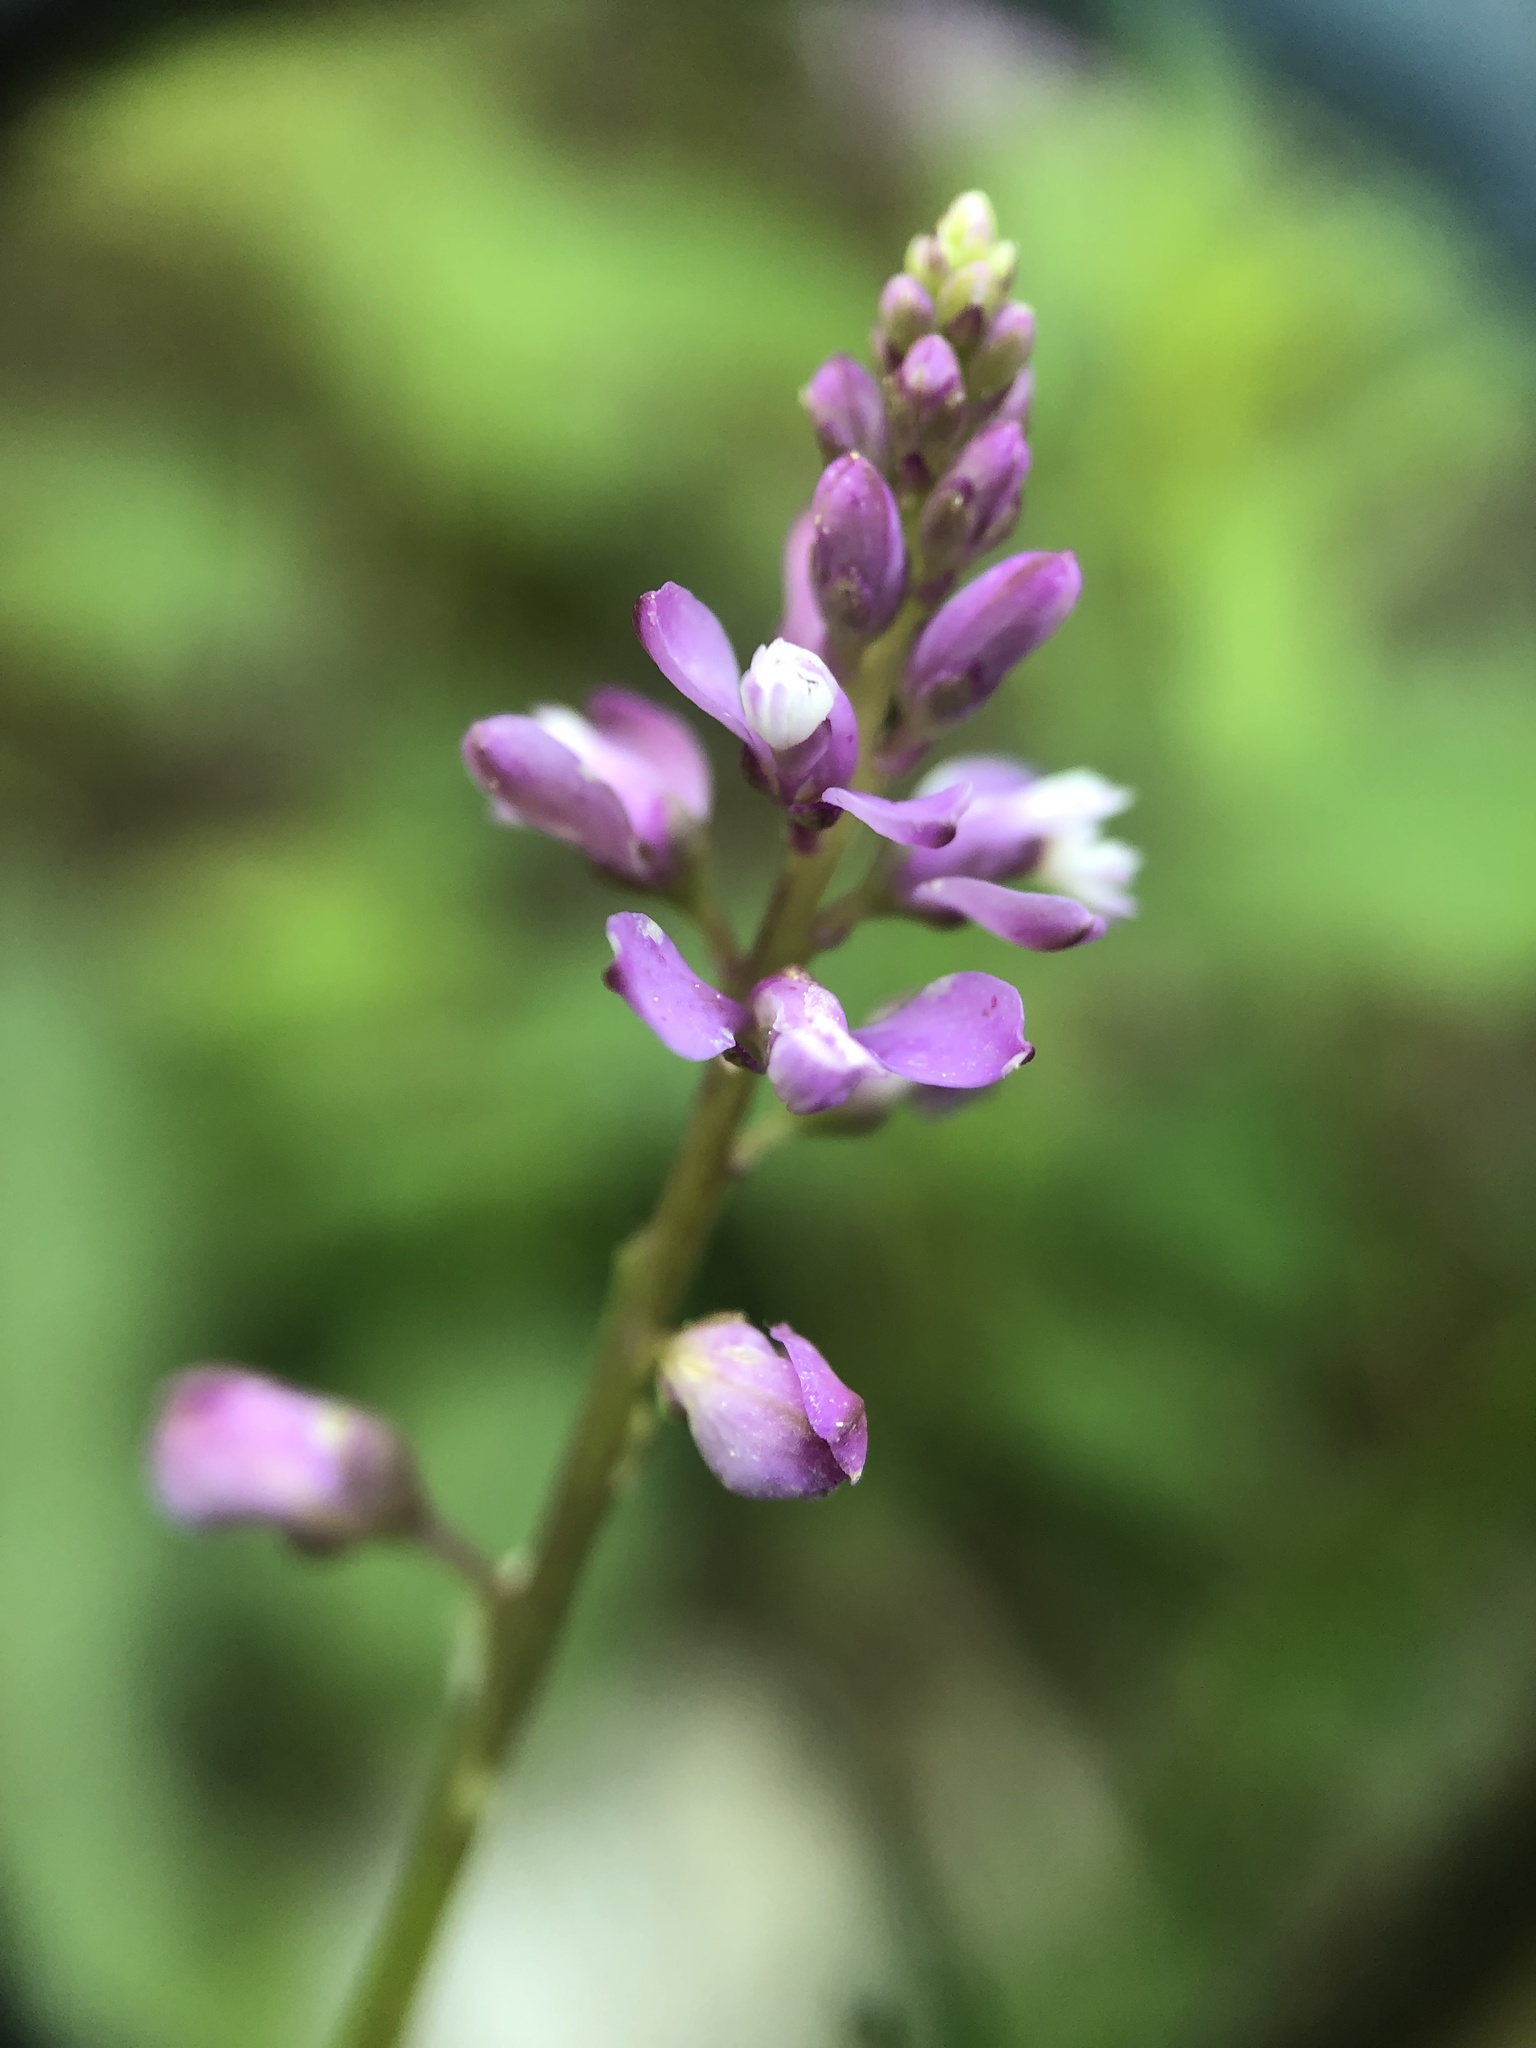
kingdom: Plantae
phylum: Tracheophyta
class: Magnoliopsida
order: Fabales
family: Polygalaceae
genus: Polygala
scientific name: Polygala polygama
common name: Bitter milkwort
